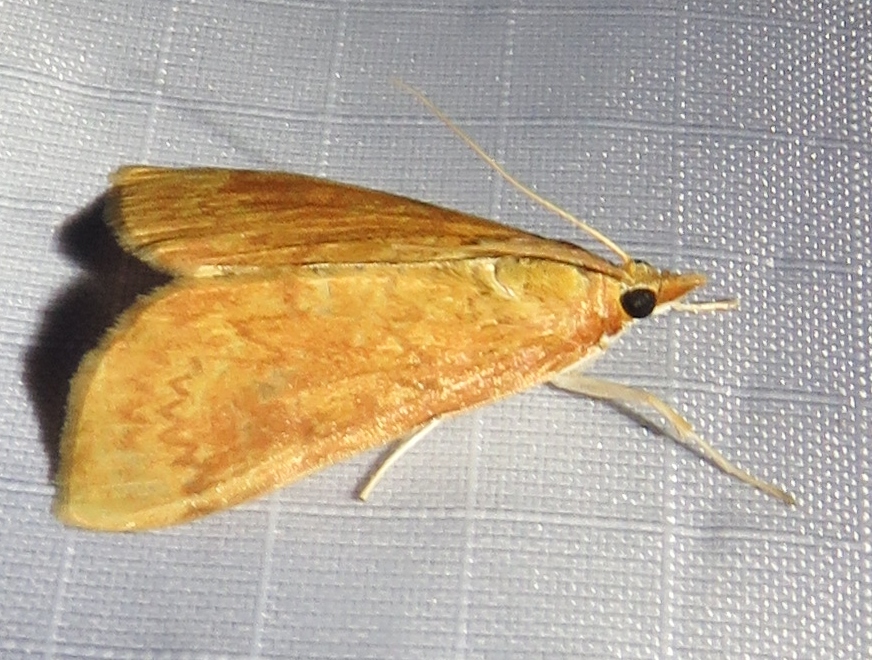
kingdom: Animalia
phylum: Arthropoda
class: Insecta
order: Lepidoptera
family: Crambidae
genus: Ostrinia
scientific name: Ostrinia penitalis
